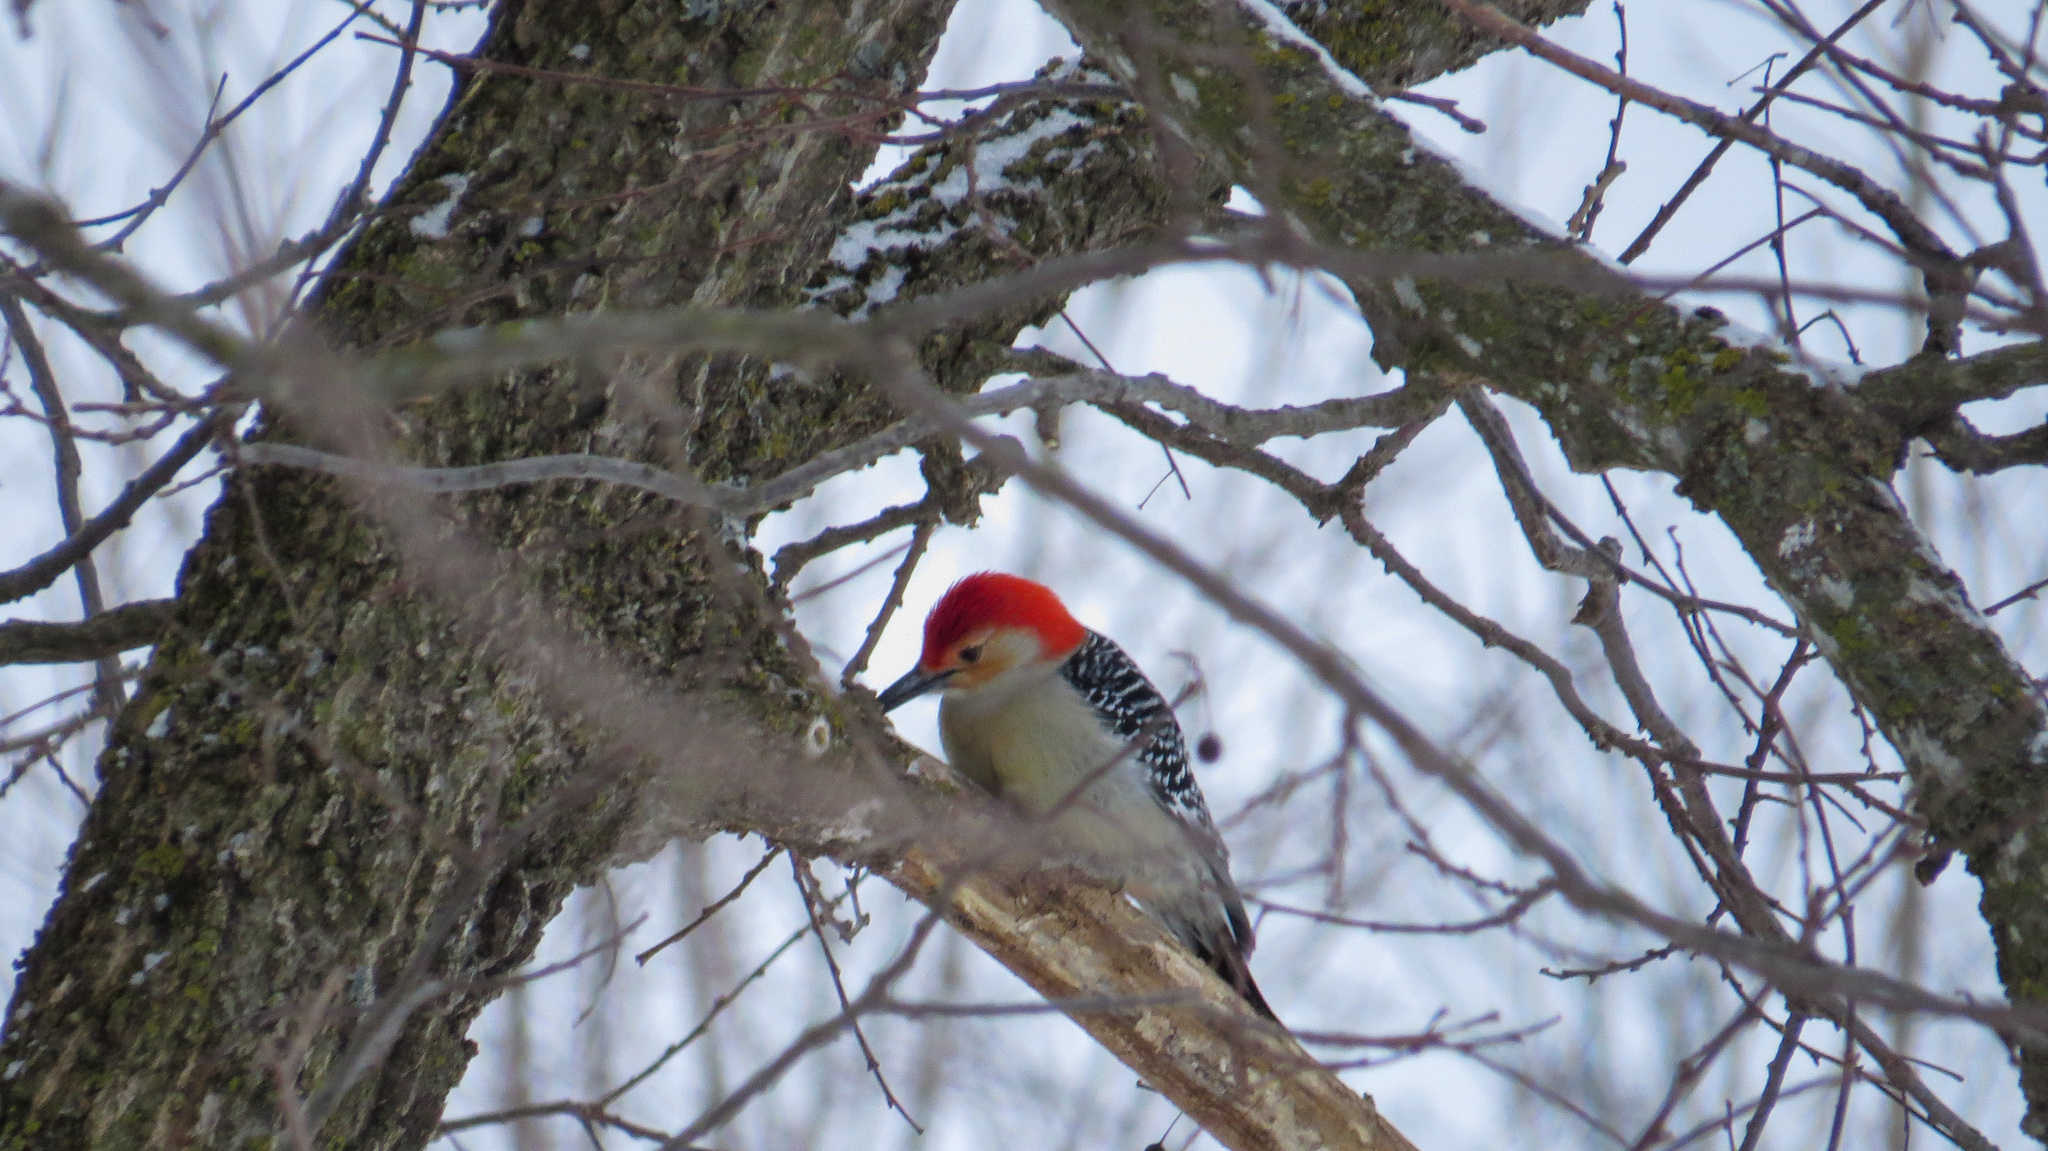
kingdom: Animalia
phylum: Chordata
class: Aves
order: Piciformes
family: Picidae
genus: Melanerpes
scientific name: Melanerpes carolinus
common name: Red-bellied woodpecker
